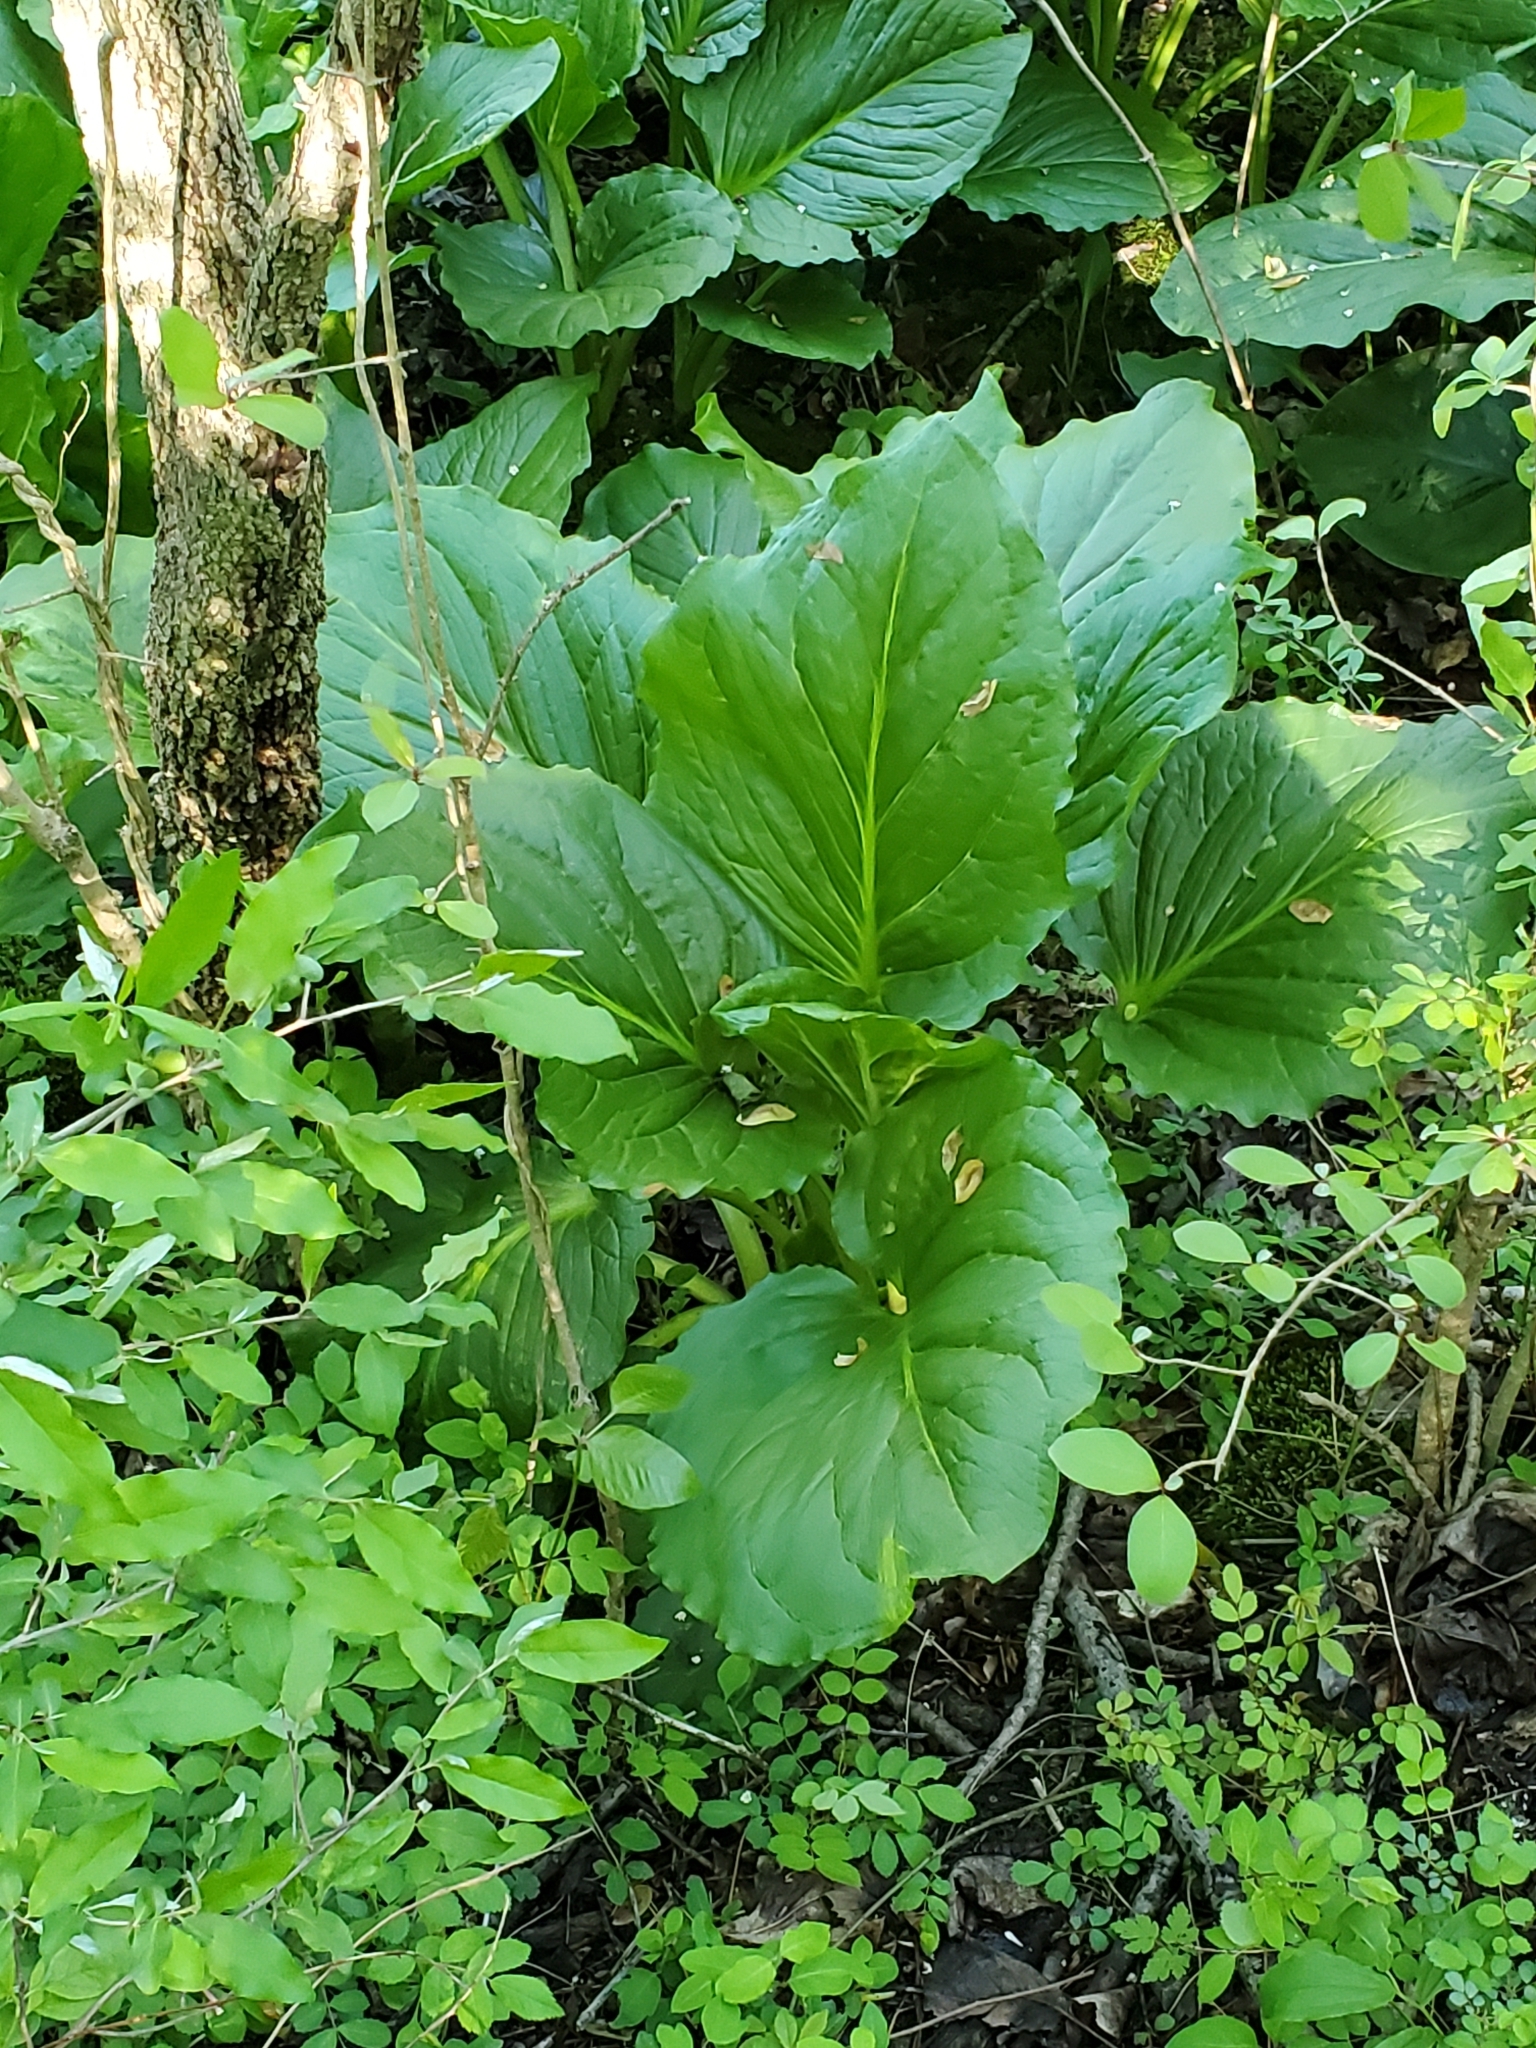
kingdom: Plantae
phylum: Tracheophyta
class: Liliopsida
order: Alismatales
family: Araceae
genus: Symplocarpus
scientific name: Symplocarpus foetidus
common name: Eastern skunk cabbage
